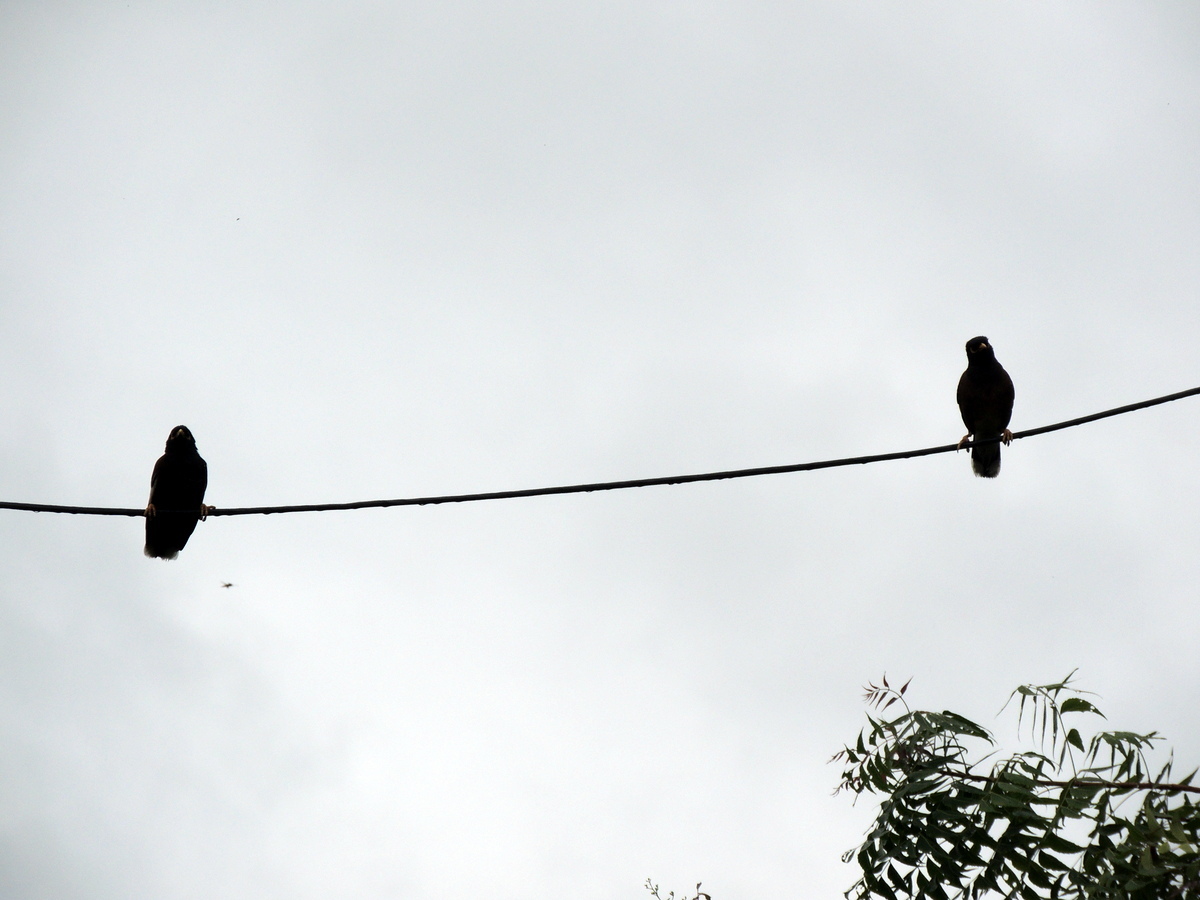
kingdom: Animalia
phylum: Chordata
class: Aves
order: Passeriformes
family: Sturnidae
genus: Acridotheres
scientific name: Acridotheres tristis
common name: Common myna
